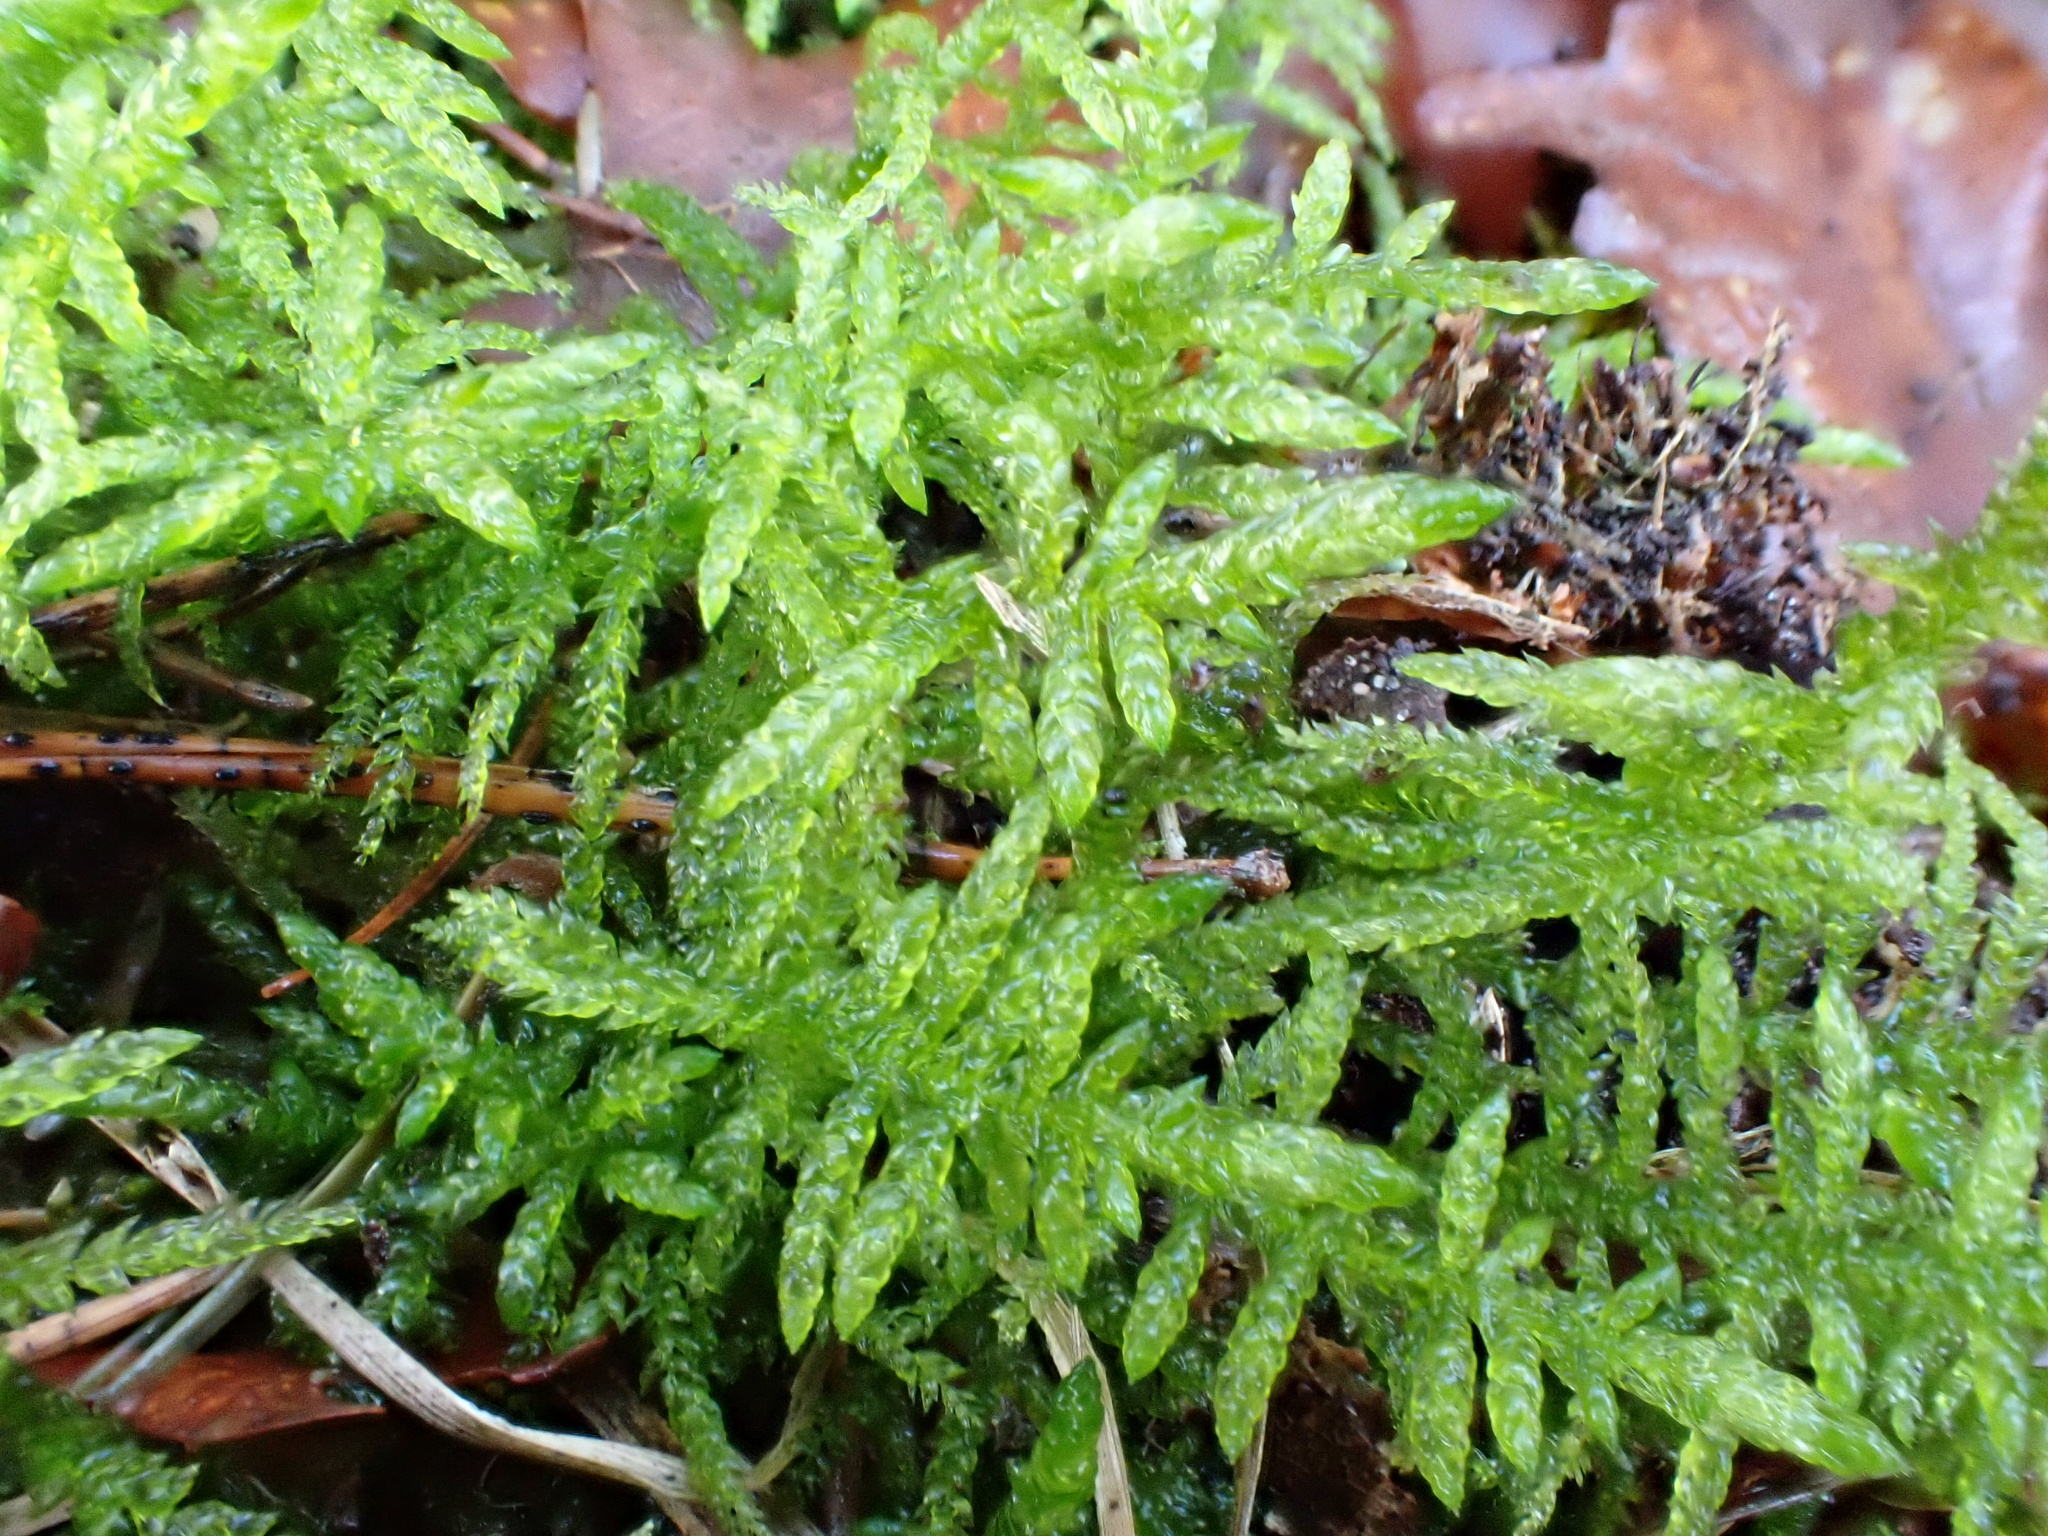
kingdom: Plantae
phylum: Bryophyta
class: Bryopsida
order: Hypnales
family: Brachytheciaceae
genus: Pseudoscleropodium
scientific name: Pseudoscleropodium purum
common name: Neat feather-moss
